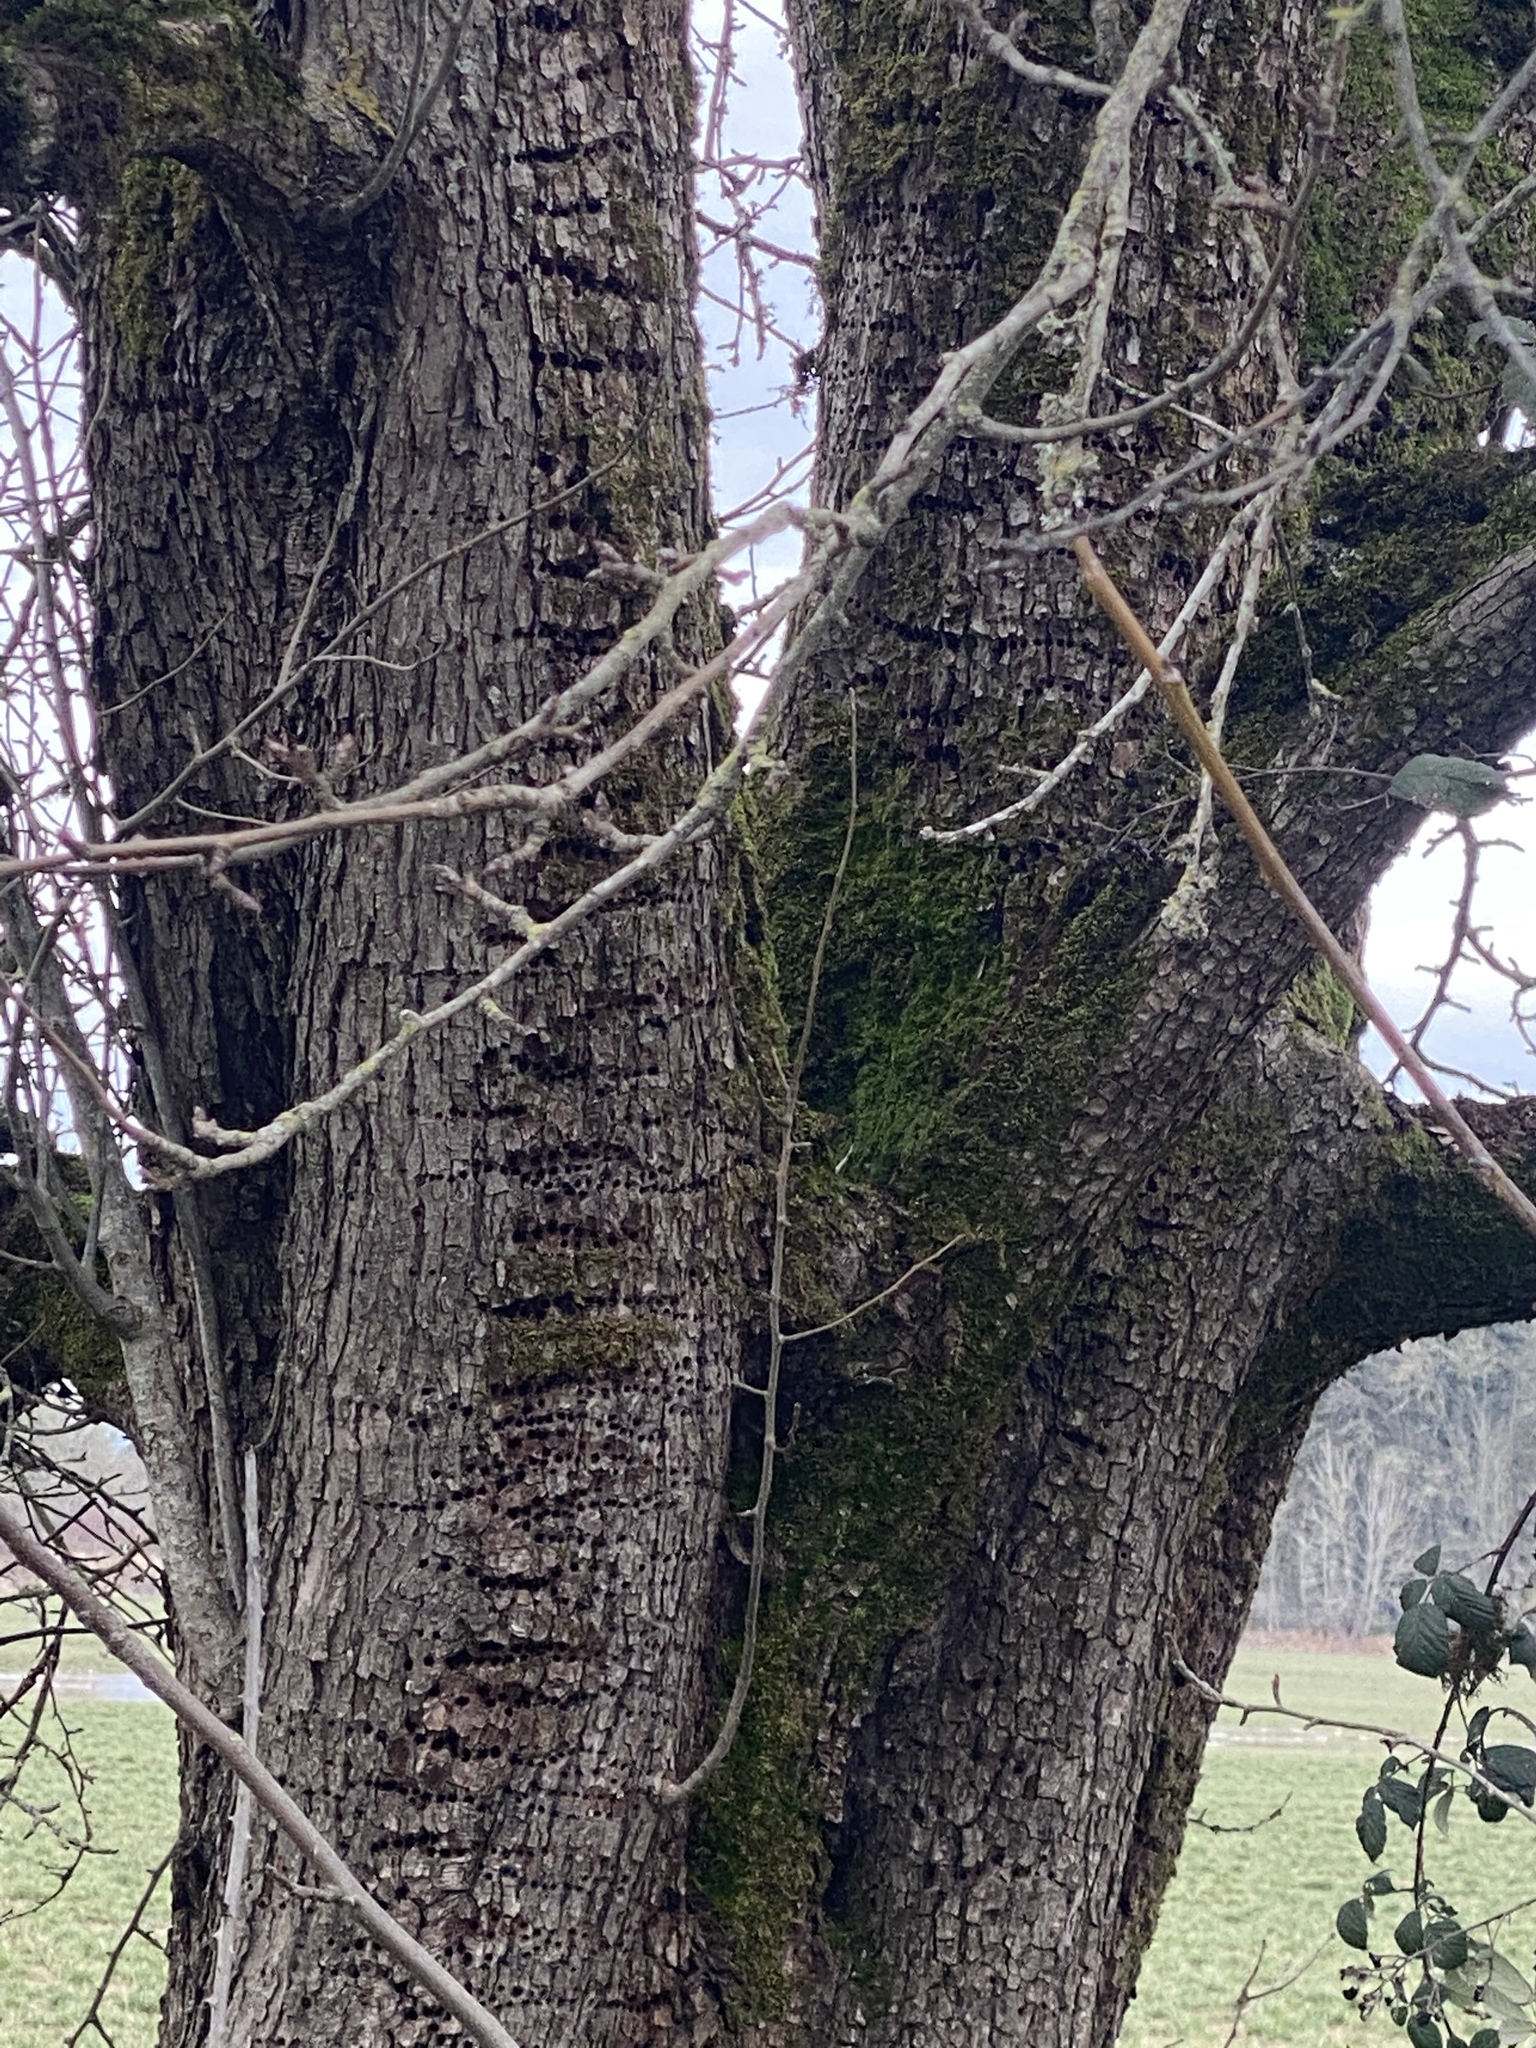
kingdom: Animalia
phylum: Chordata
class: Aves
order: Piciformes
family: Picidae
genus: Sphyrapicus
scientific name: Sphyrapicus ruber
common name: Red-breasted sapsucker
